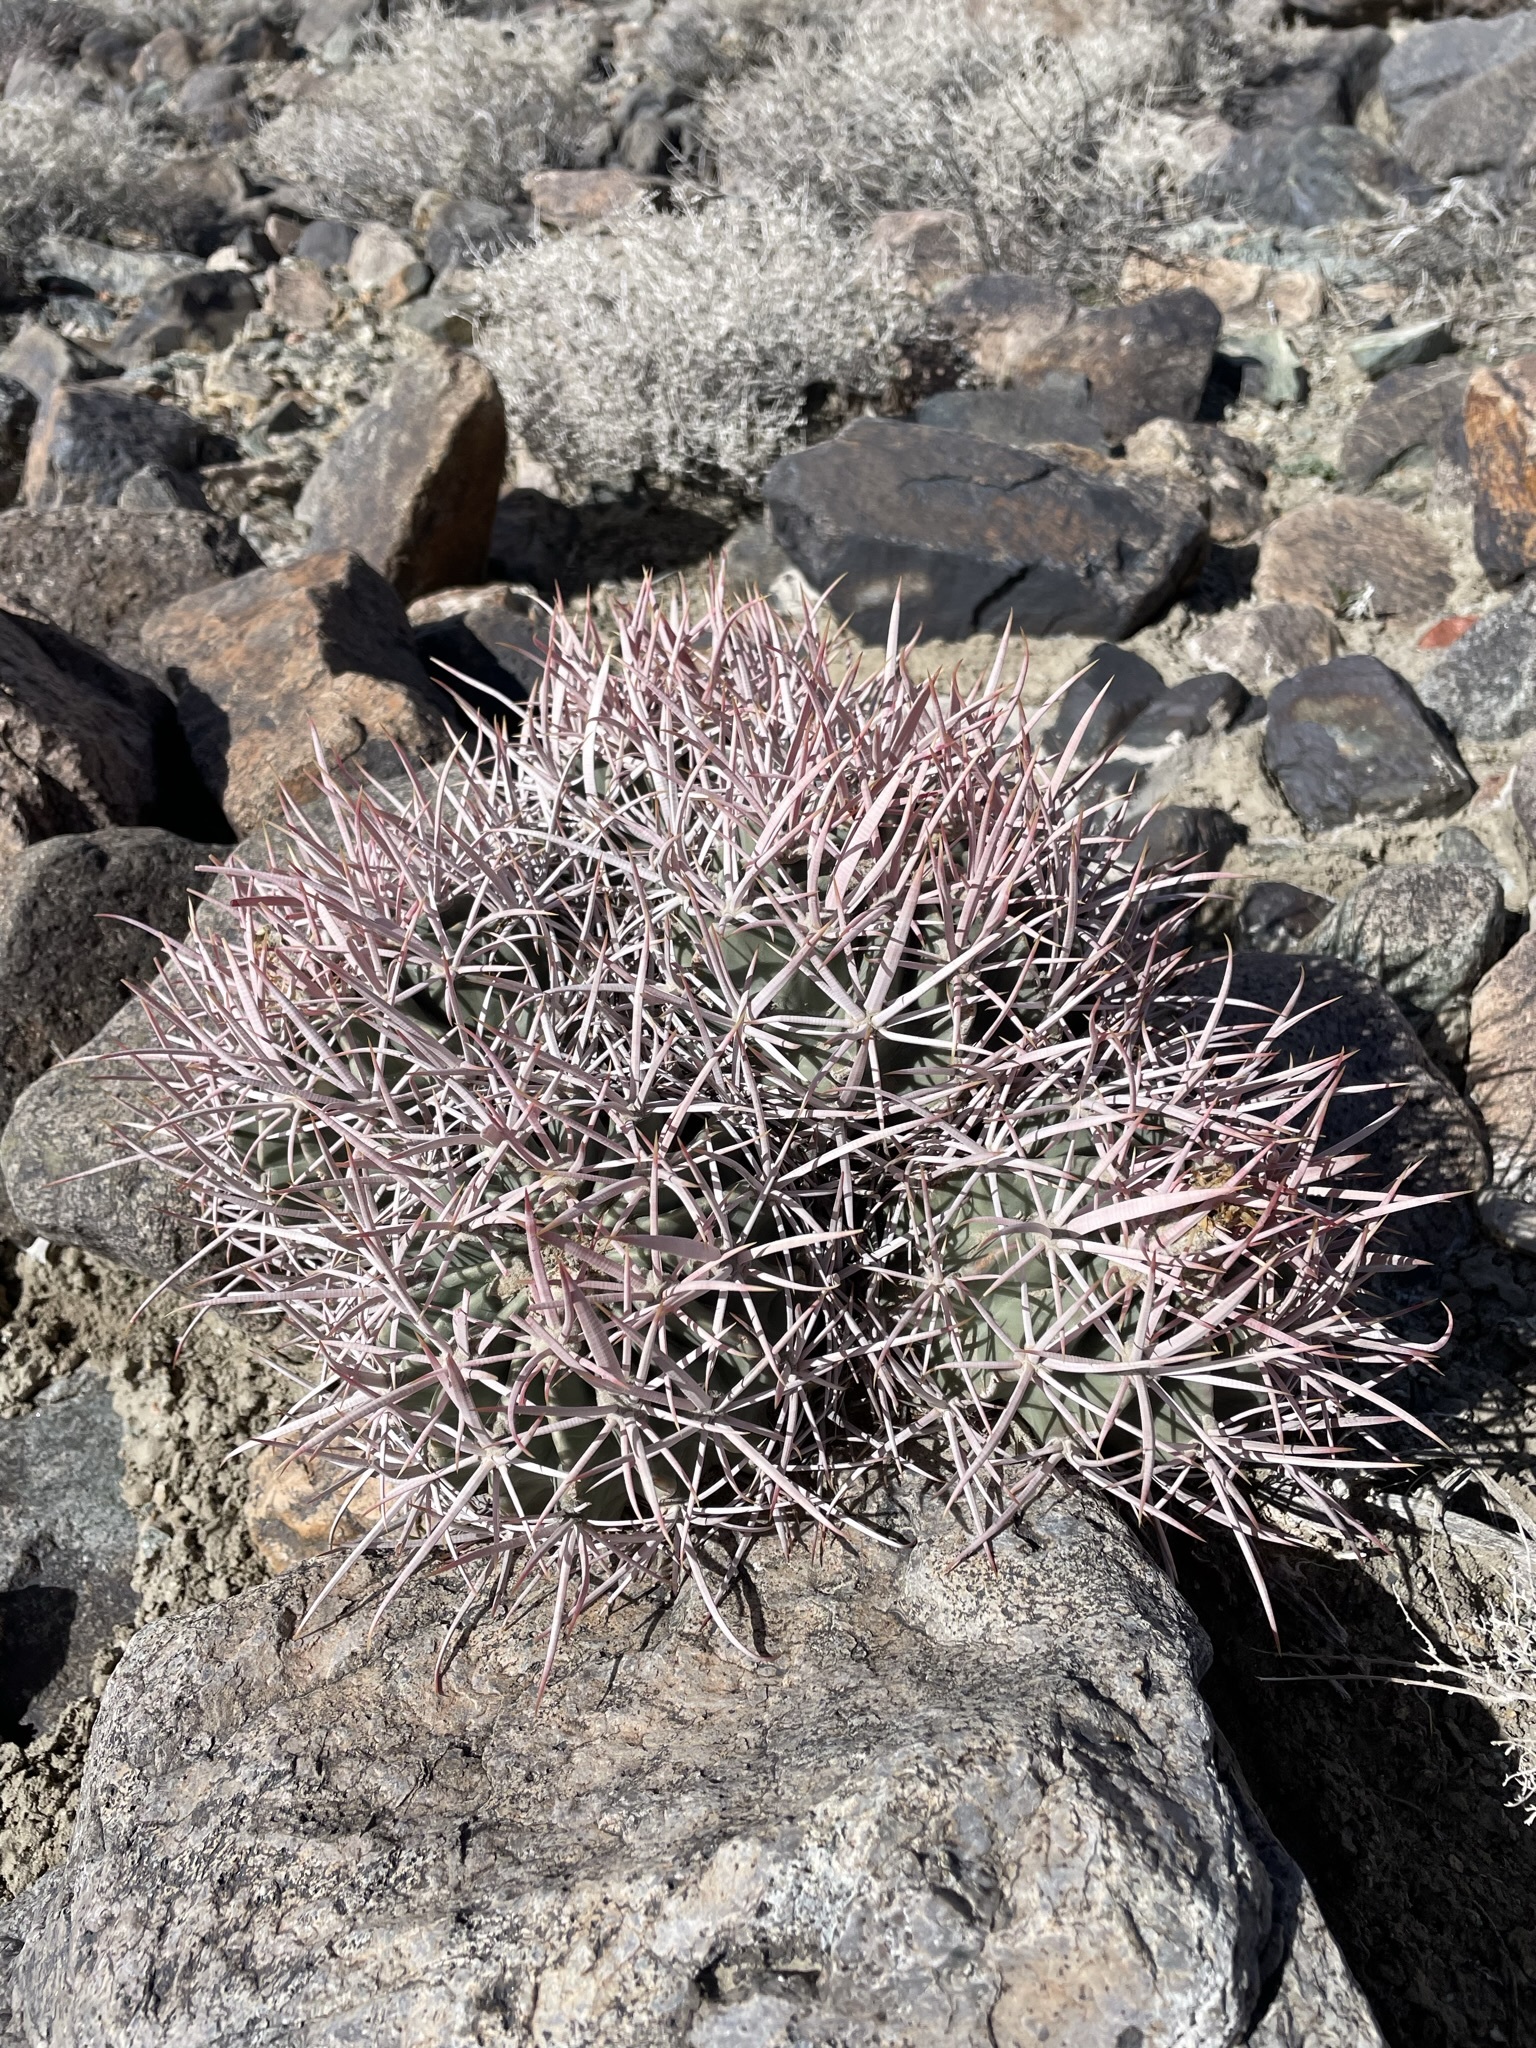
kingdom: Plantae
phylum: Tracheophyta
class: Magnoliopsida
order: Caryophyllales
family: Cactaceae
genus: Echinocactus
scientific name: Echinocactus polycephalus
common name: Cottontop cactus
